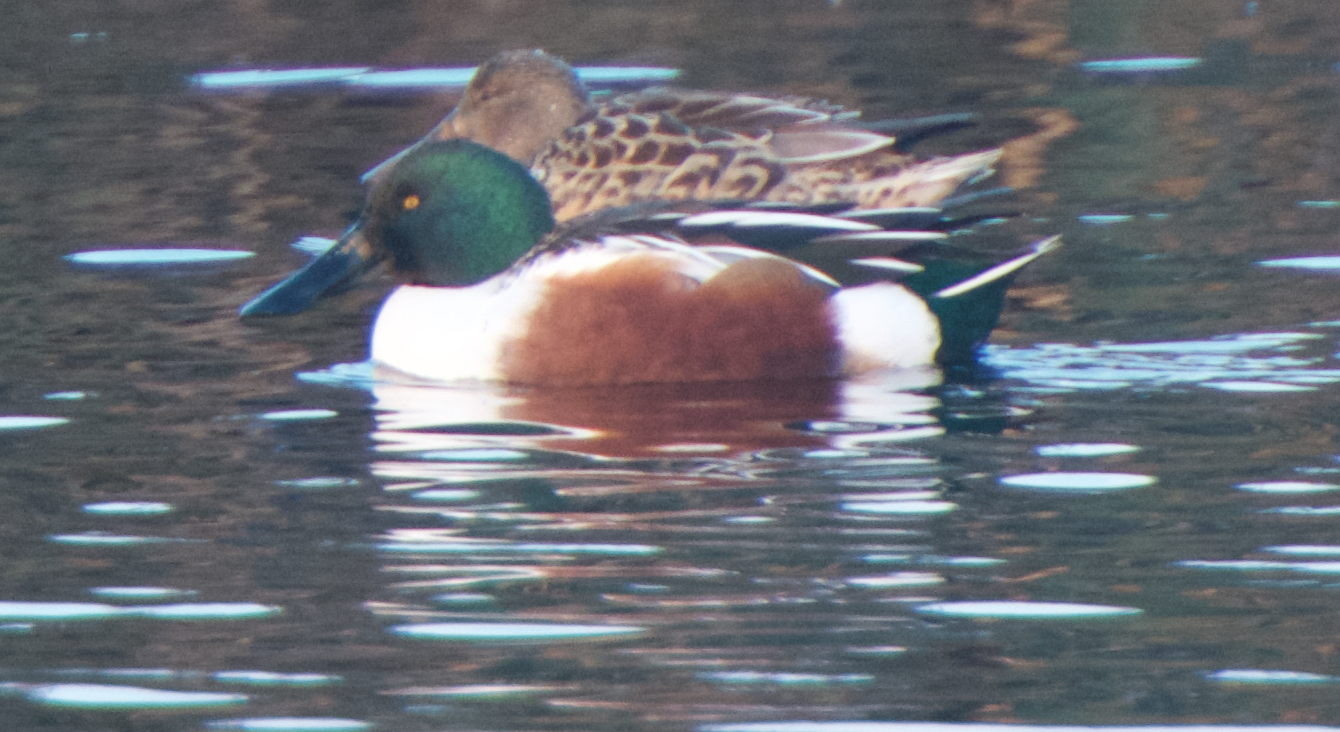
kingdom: Animalia
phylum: Chordata
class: Aves
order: Anseriformes
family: Anatidae
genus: Spatula
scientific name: Spatula clypeata
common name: Northern shoveler
